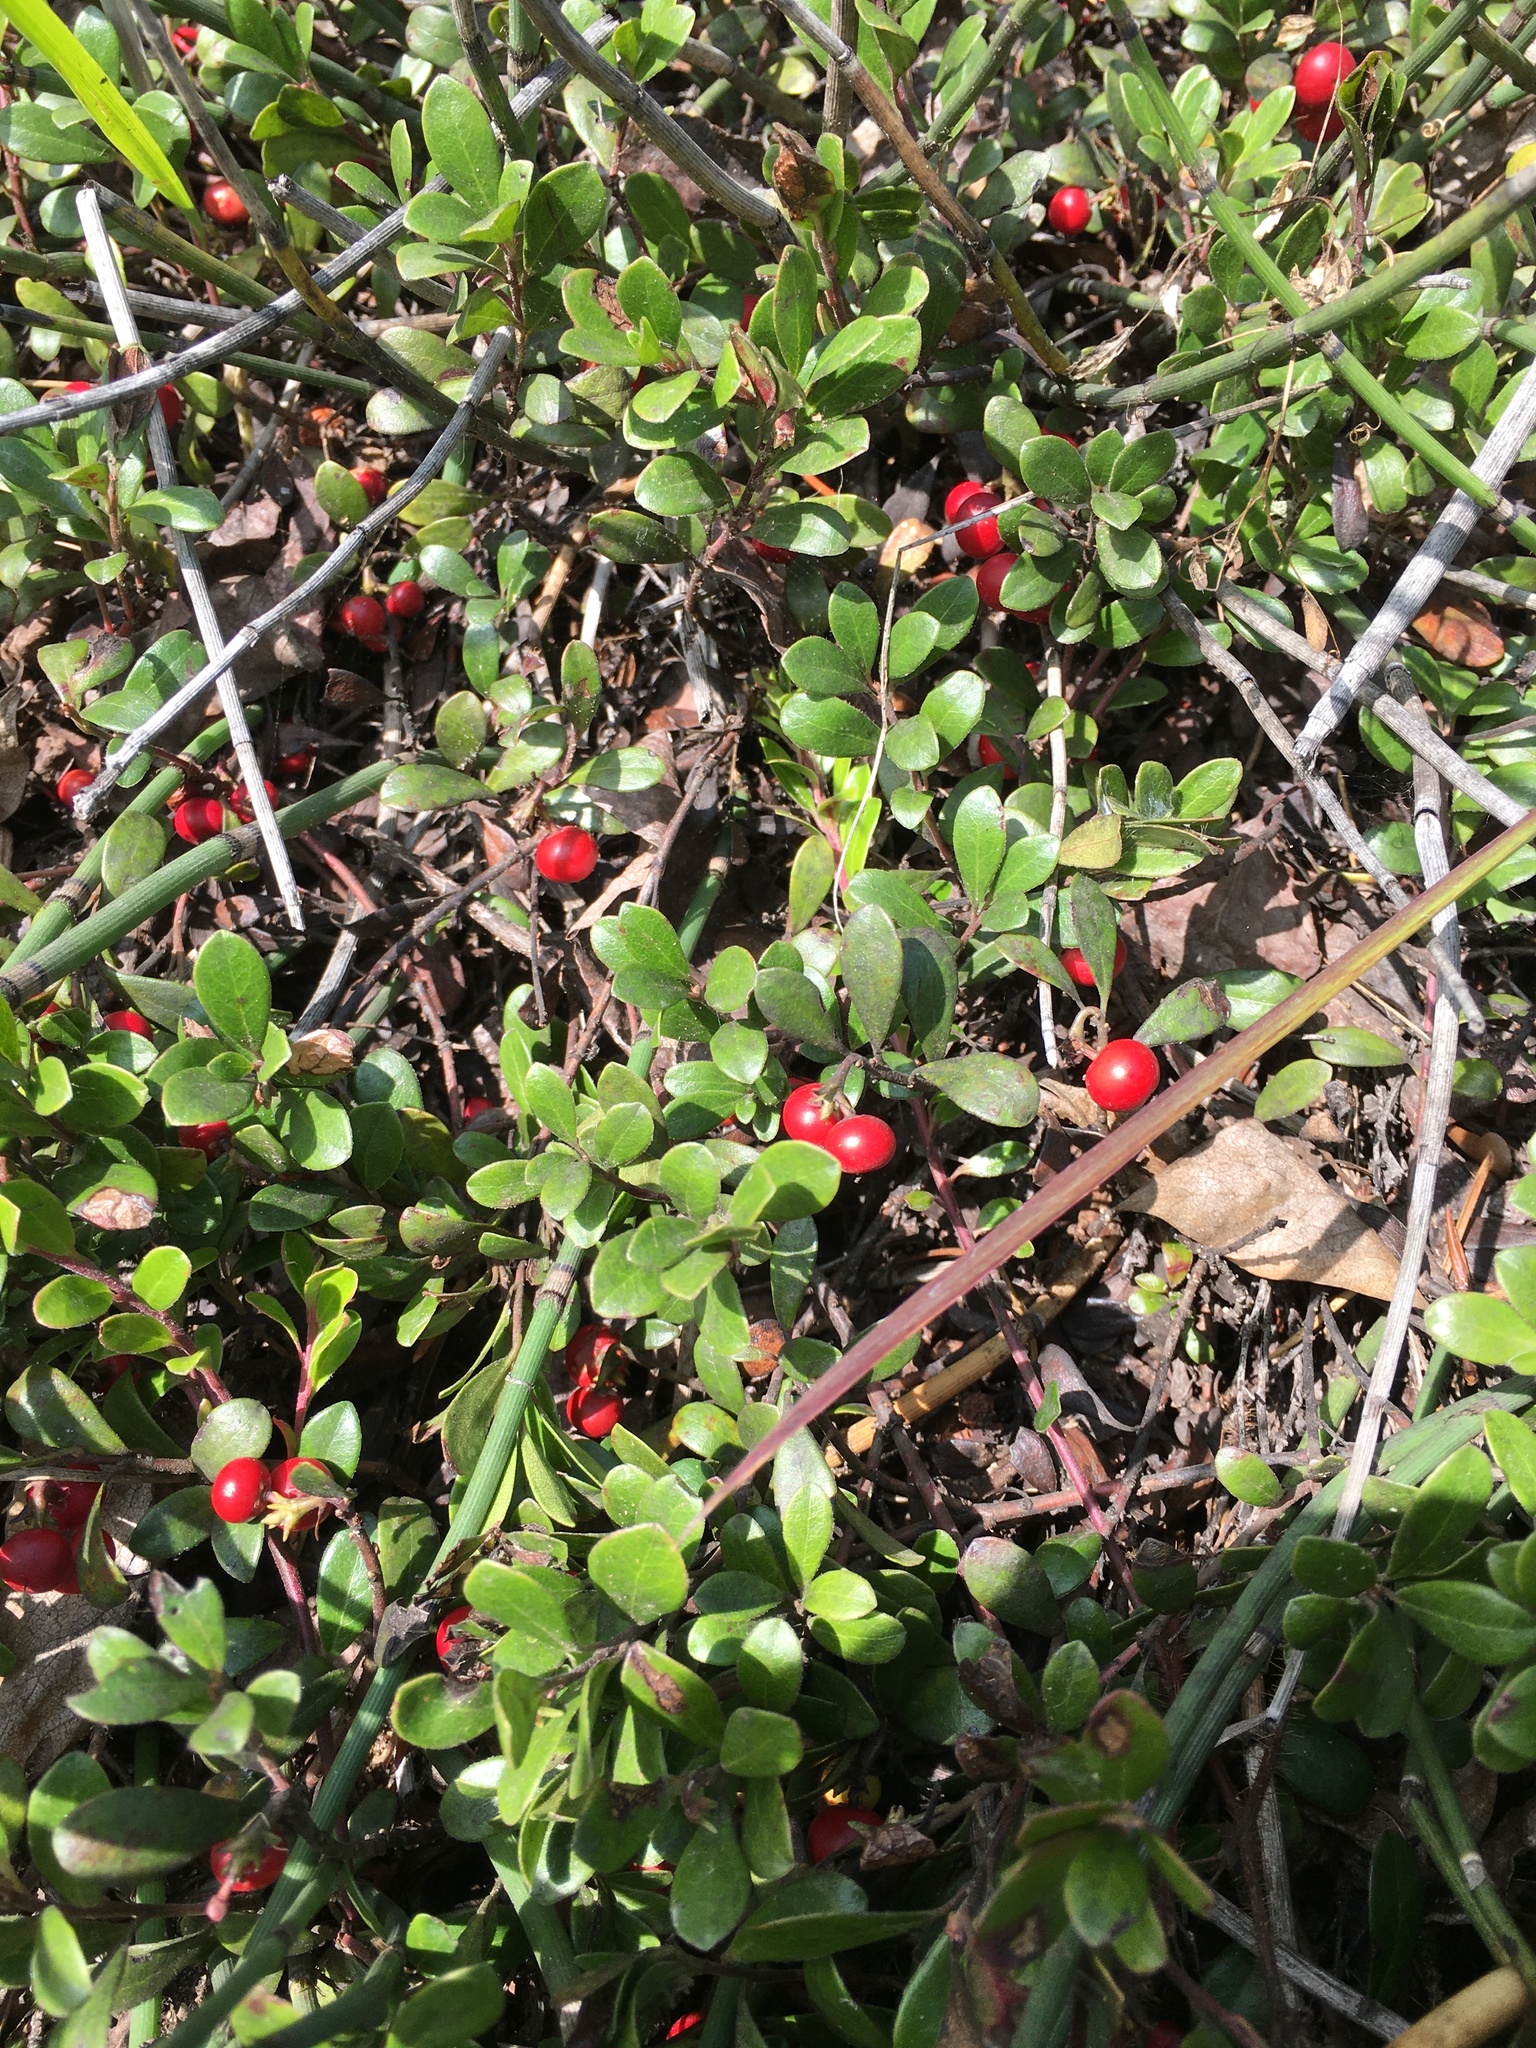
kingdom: Plantae
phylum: Tracheophyta
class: Magnoliopsida
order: Ericales
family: Ericaceae
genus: Arctostaphylos
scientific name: Arctostaphylos uva-ursi
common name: Bearberry
